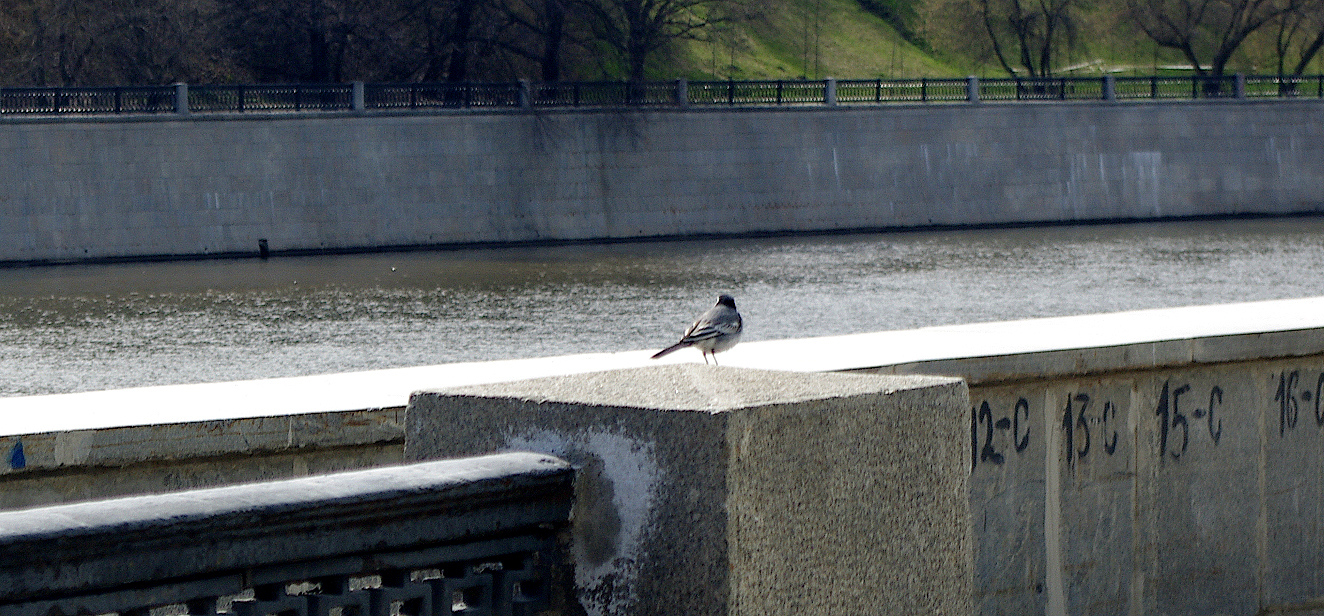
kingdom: Animalia
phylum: Chordata
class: Aves
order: Passeriformes
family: Motacillidae
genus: Motacilla
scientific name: Motacilla alba
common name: White wagtail
